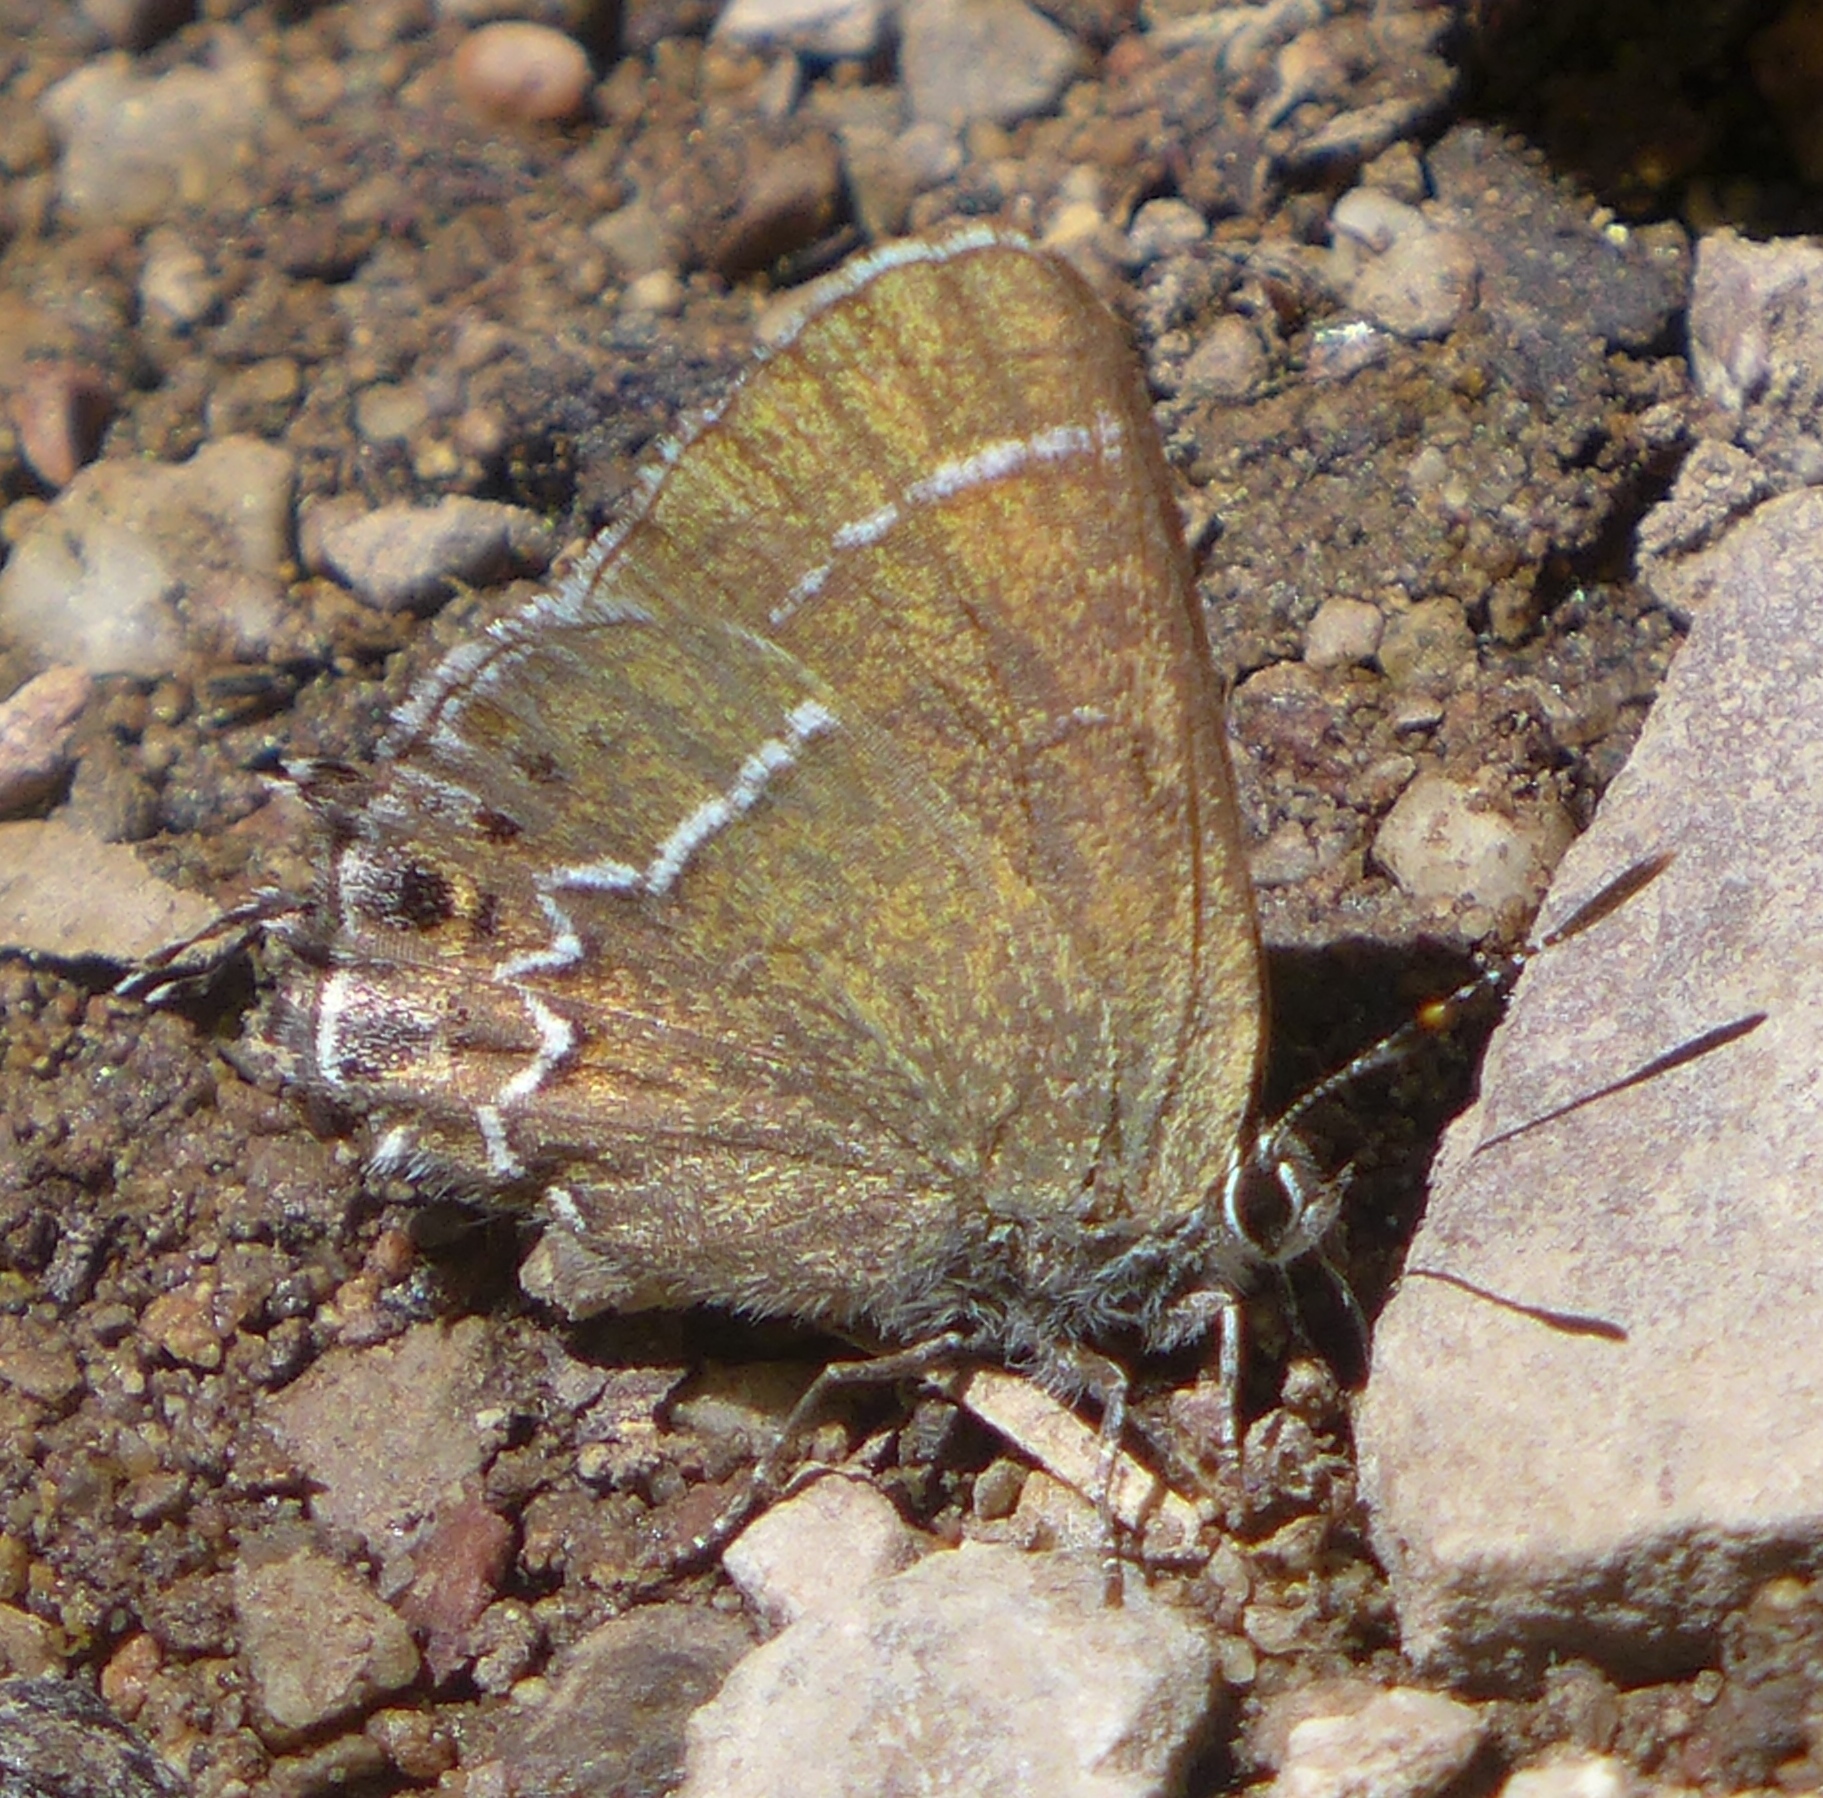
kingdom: Animalia
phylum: Arthropoda
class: Insecta
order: Lepidoptera
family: Lycaenidae
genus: Mitoura
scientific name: Mitoura spinetorum
